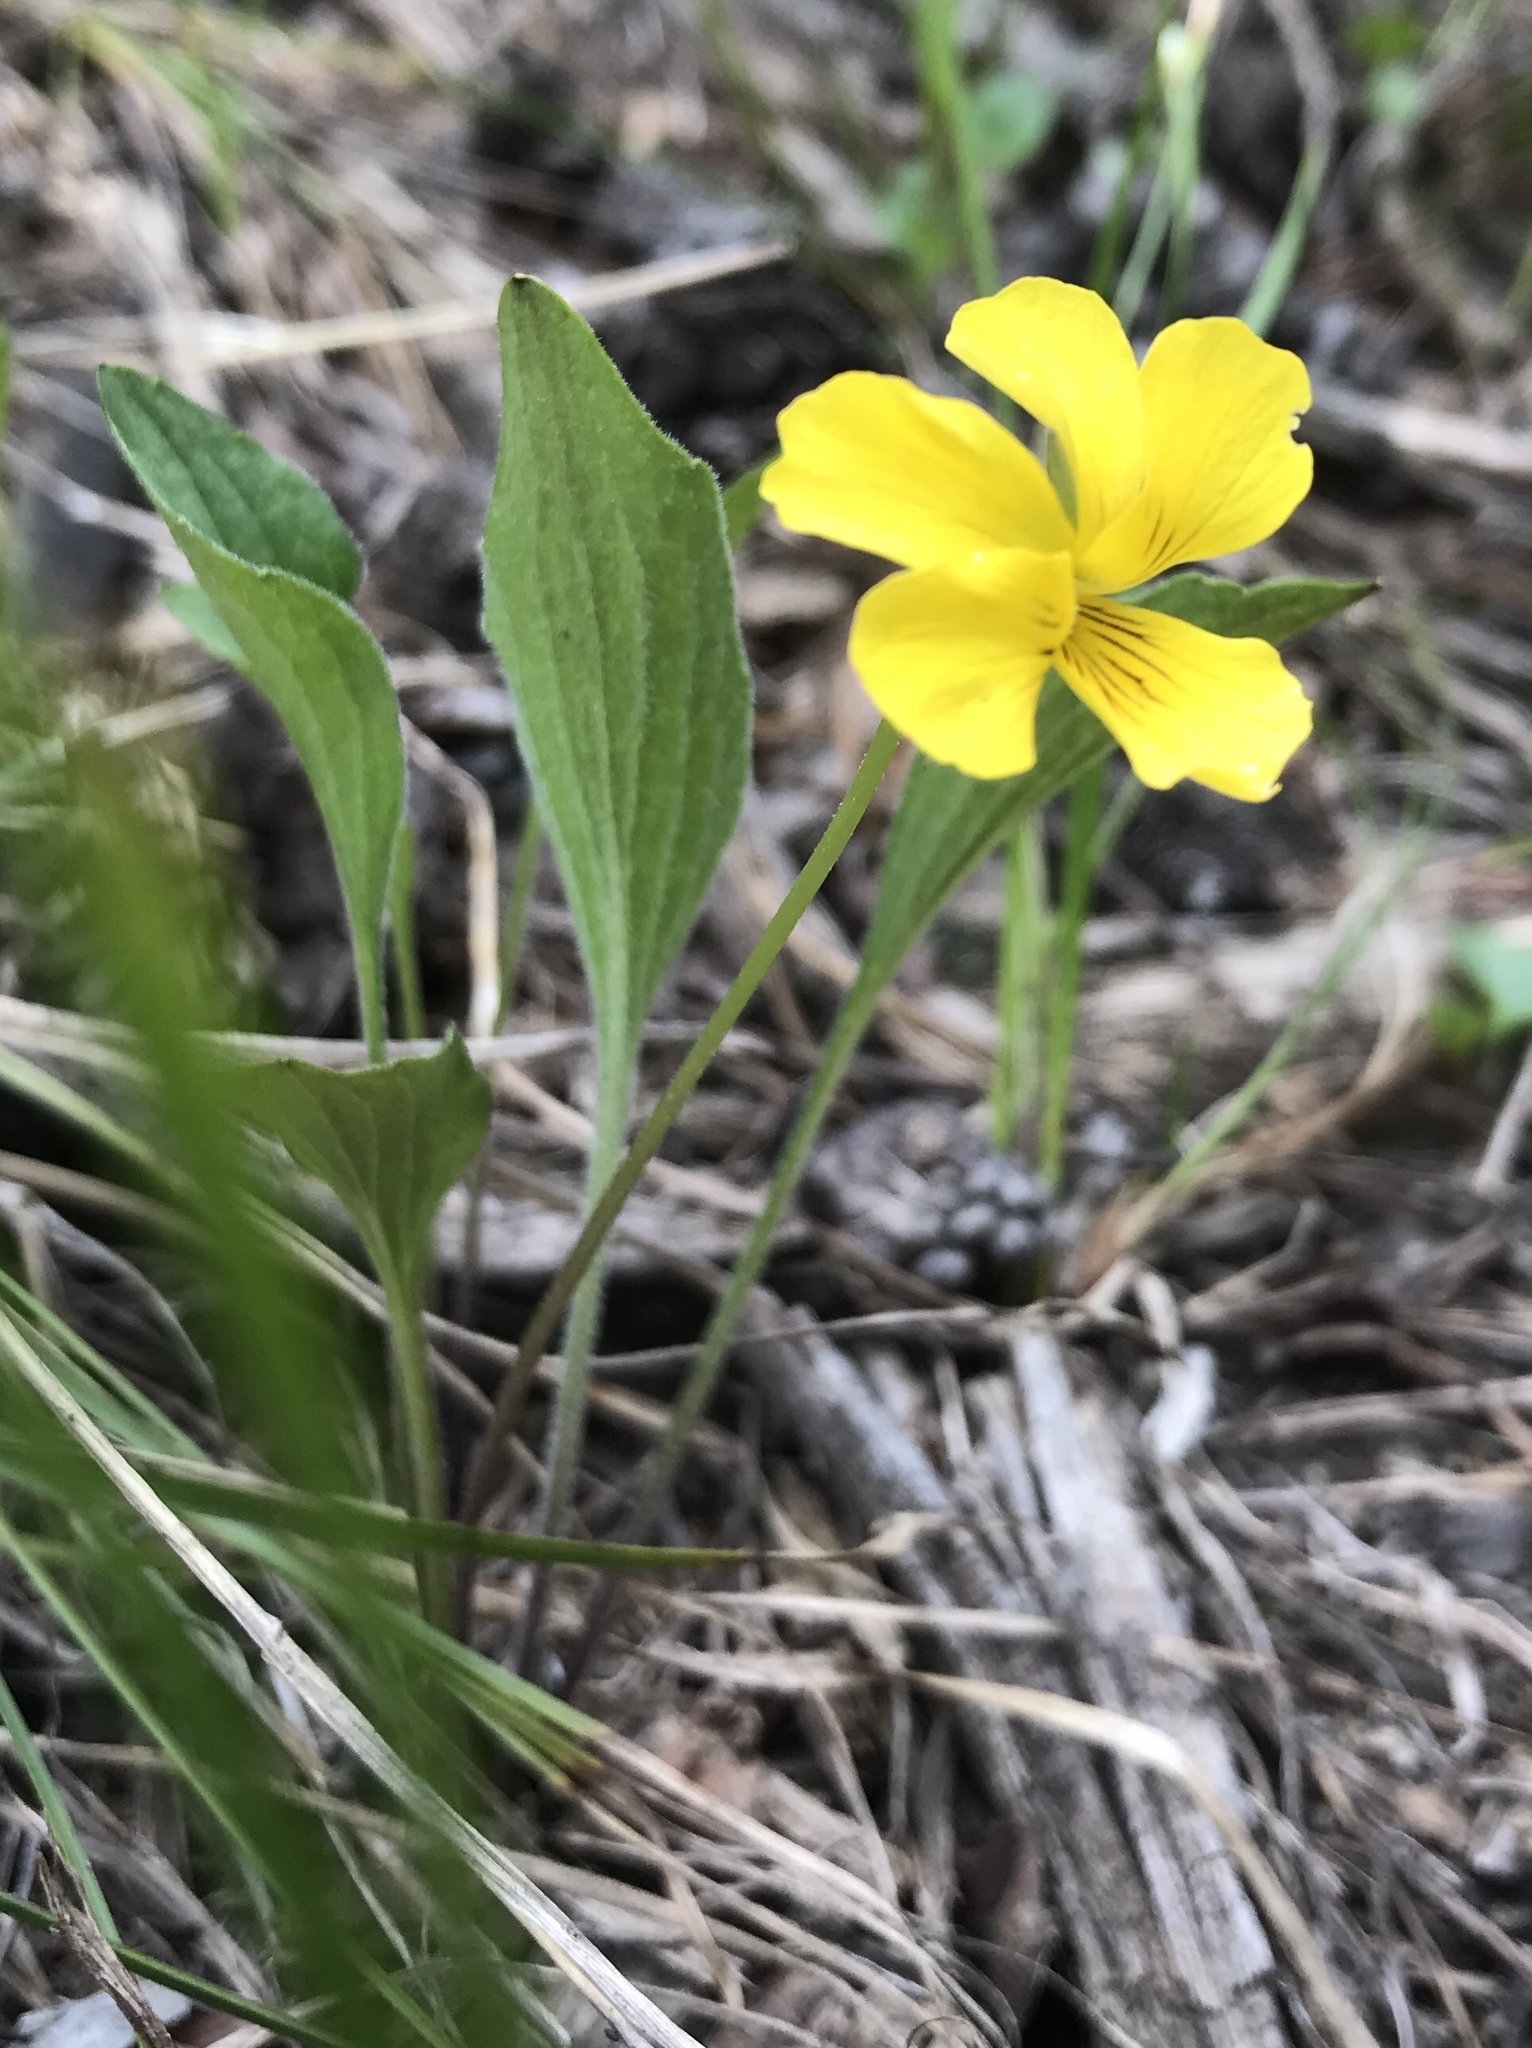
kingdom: Plantae
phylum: Tracheophyta
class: Magnoliopsida
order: Malpighiales
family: Violaceae
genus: Viola
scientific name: Viola nuttallii
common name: Yellow prairie violet
